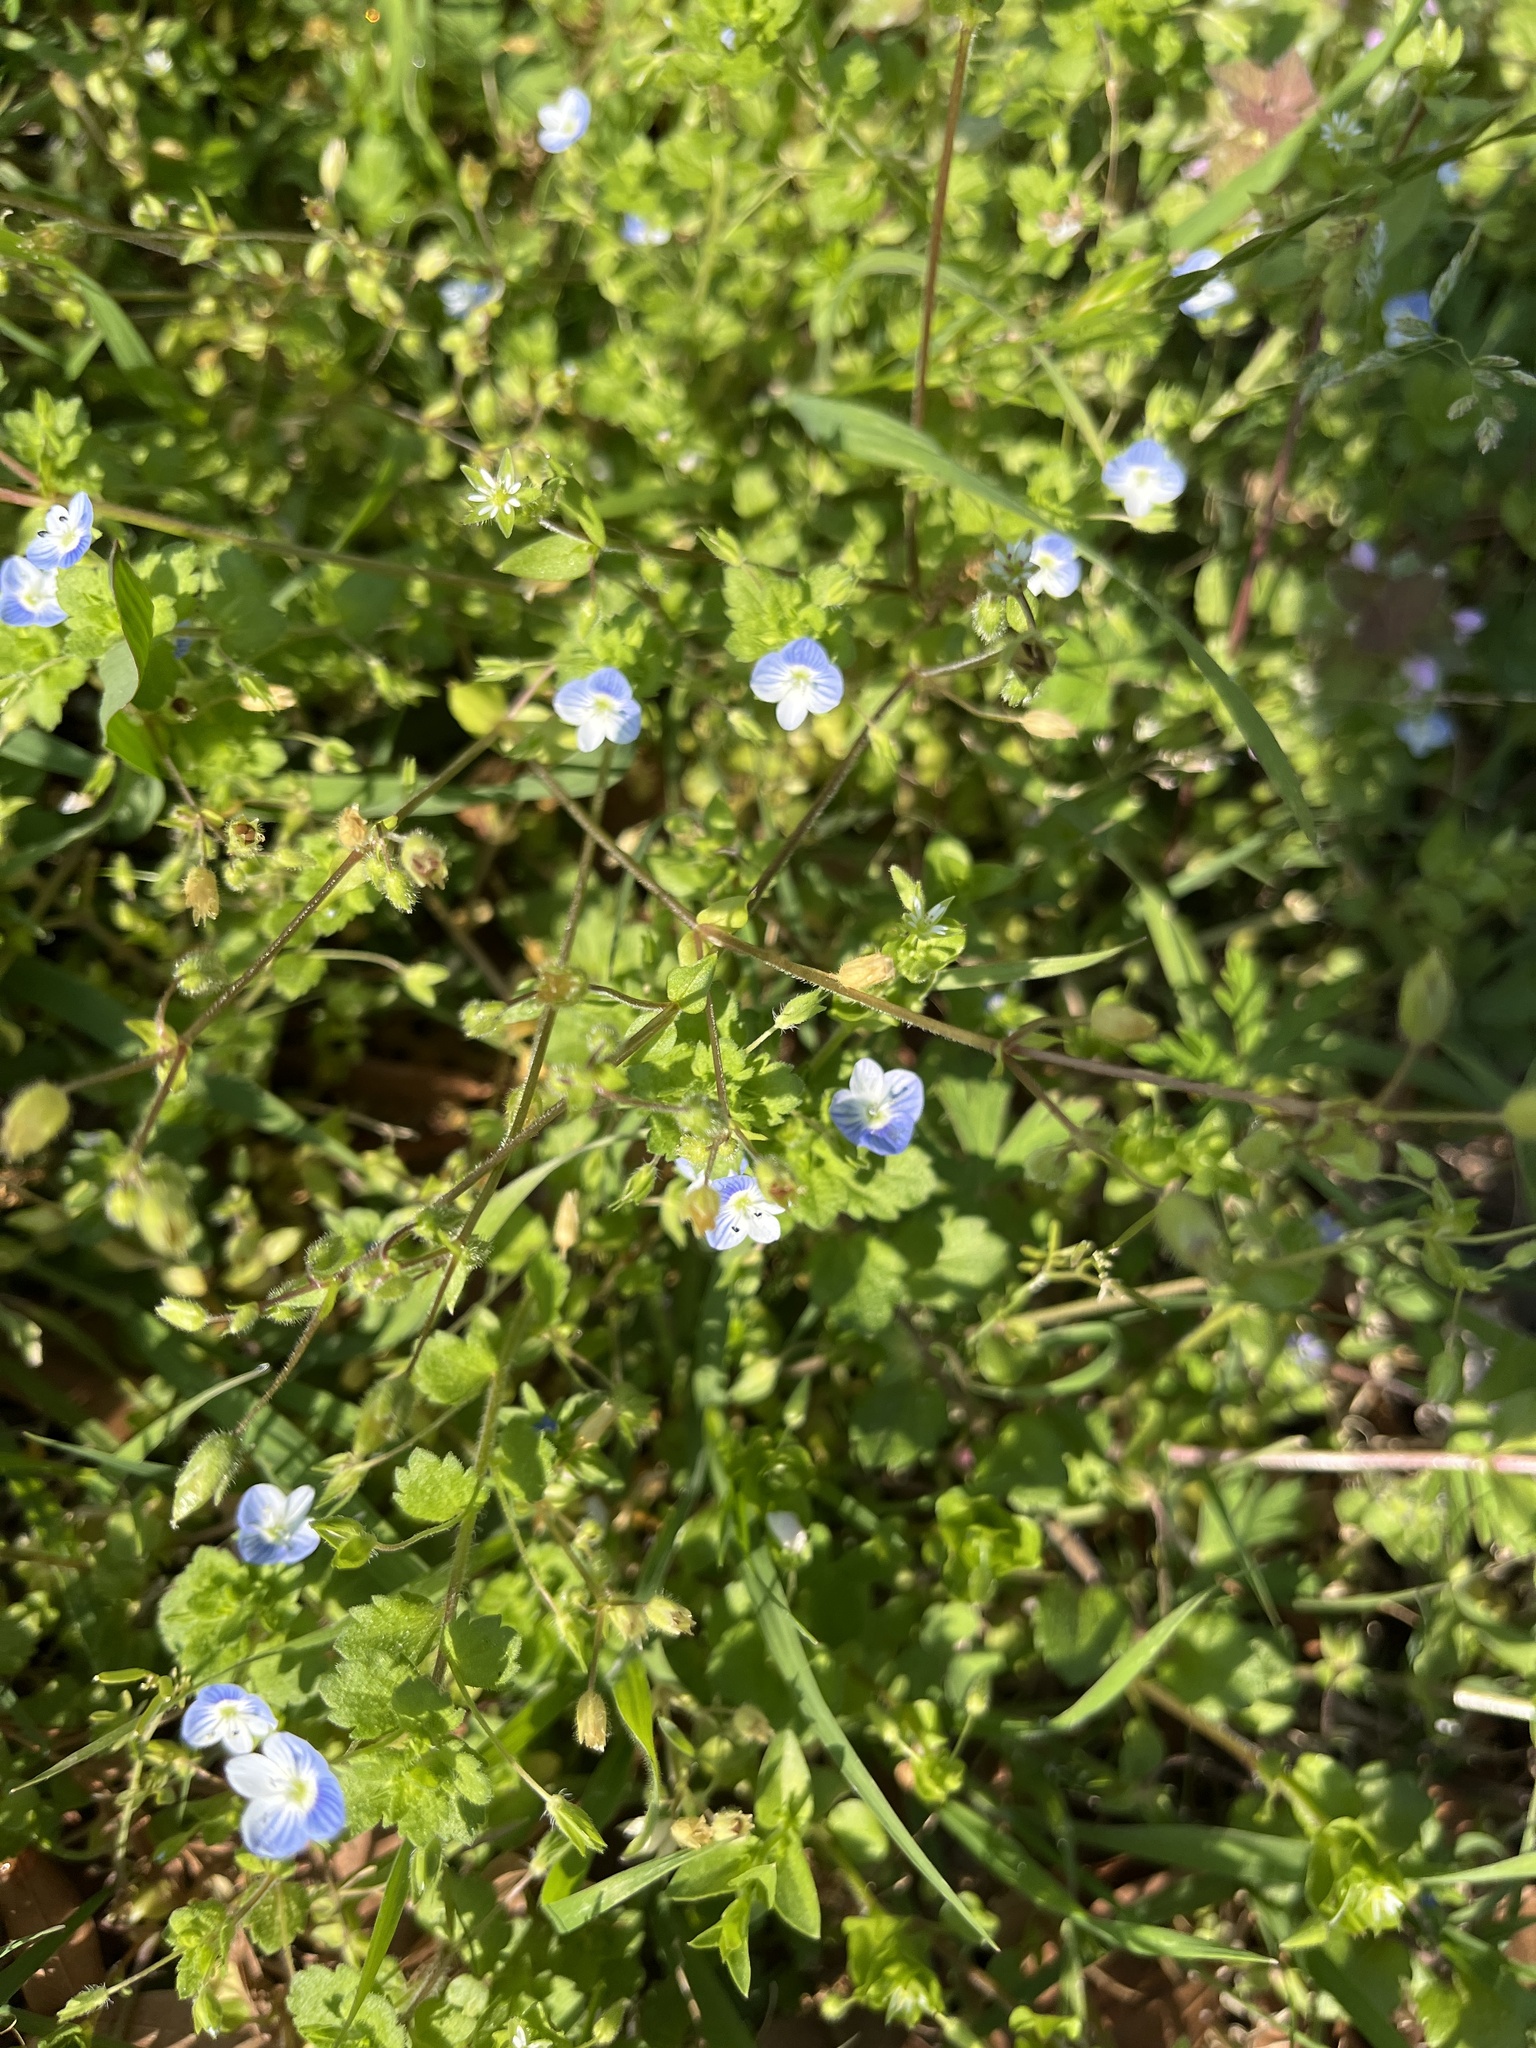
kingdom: Plantae
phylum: Tracheophyta
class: Magnoliopsida
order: Lamiales
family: Plantaginaceae
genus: Veronica
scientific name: Veronica persica
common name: Common field-speedwell
